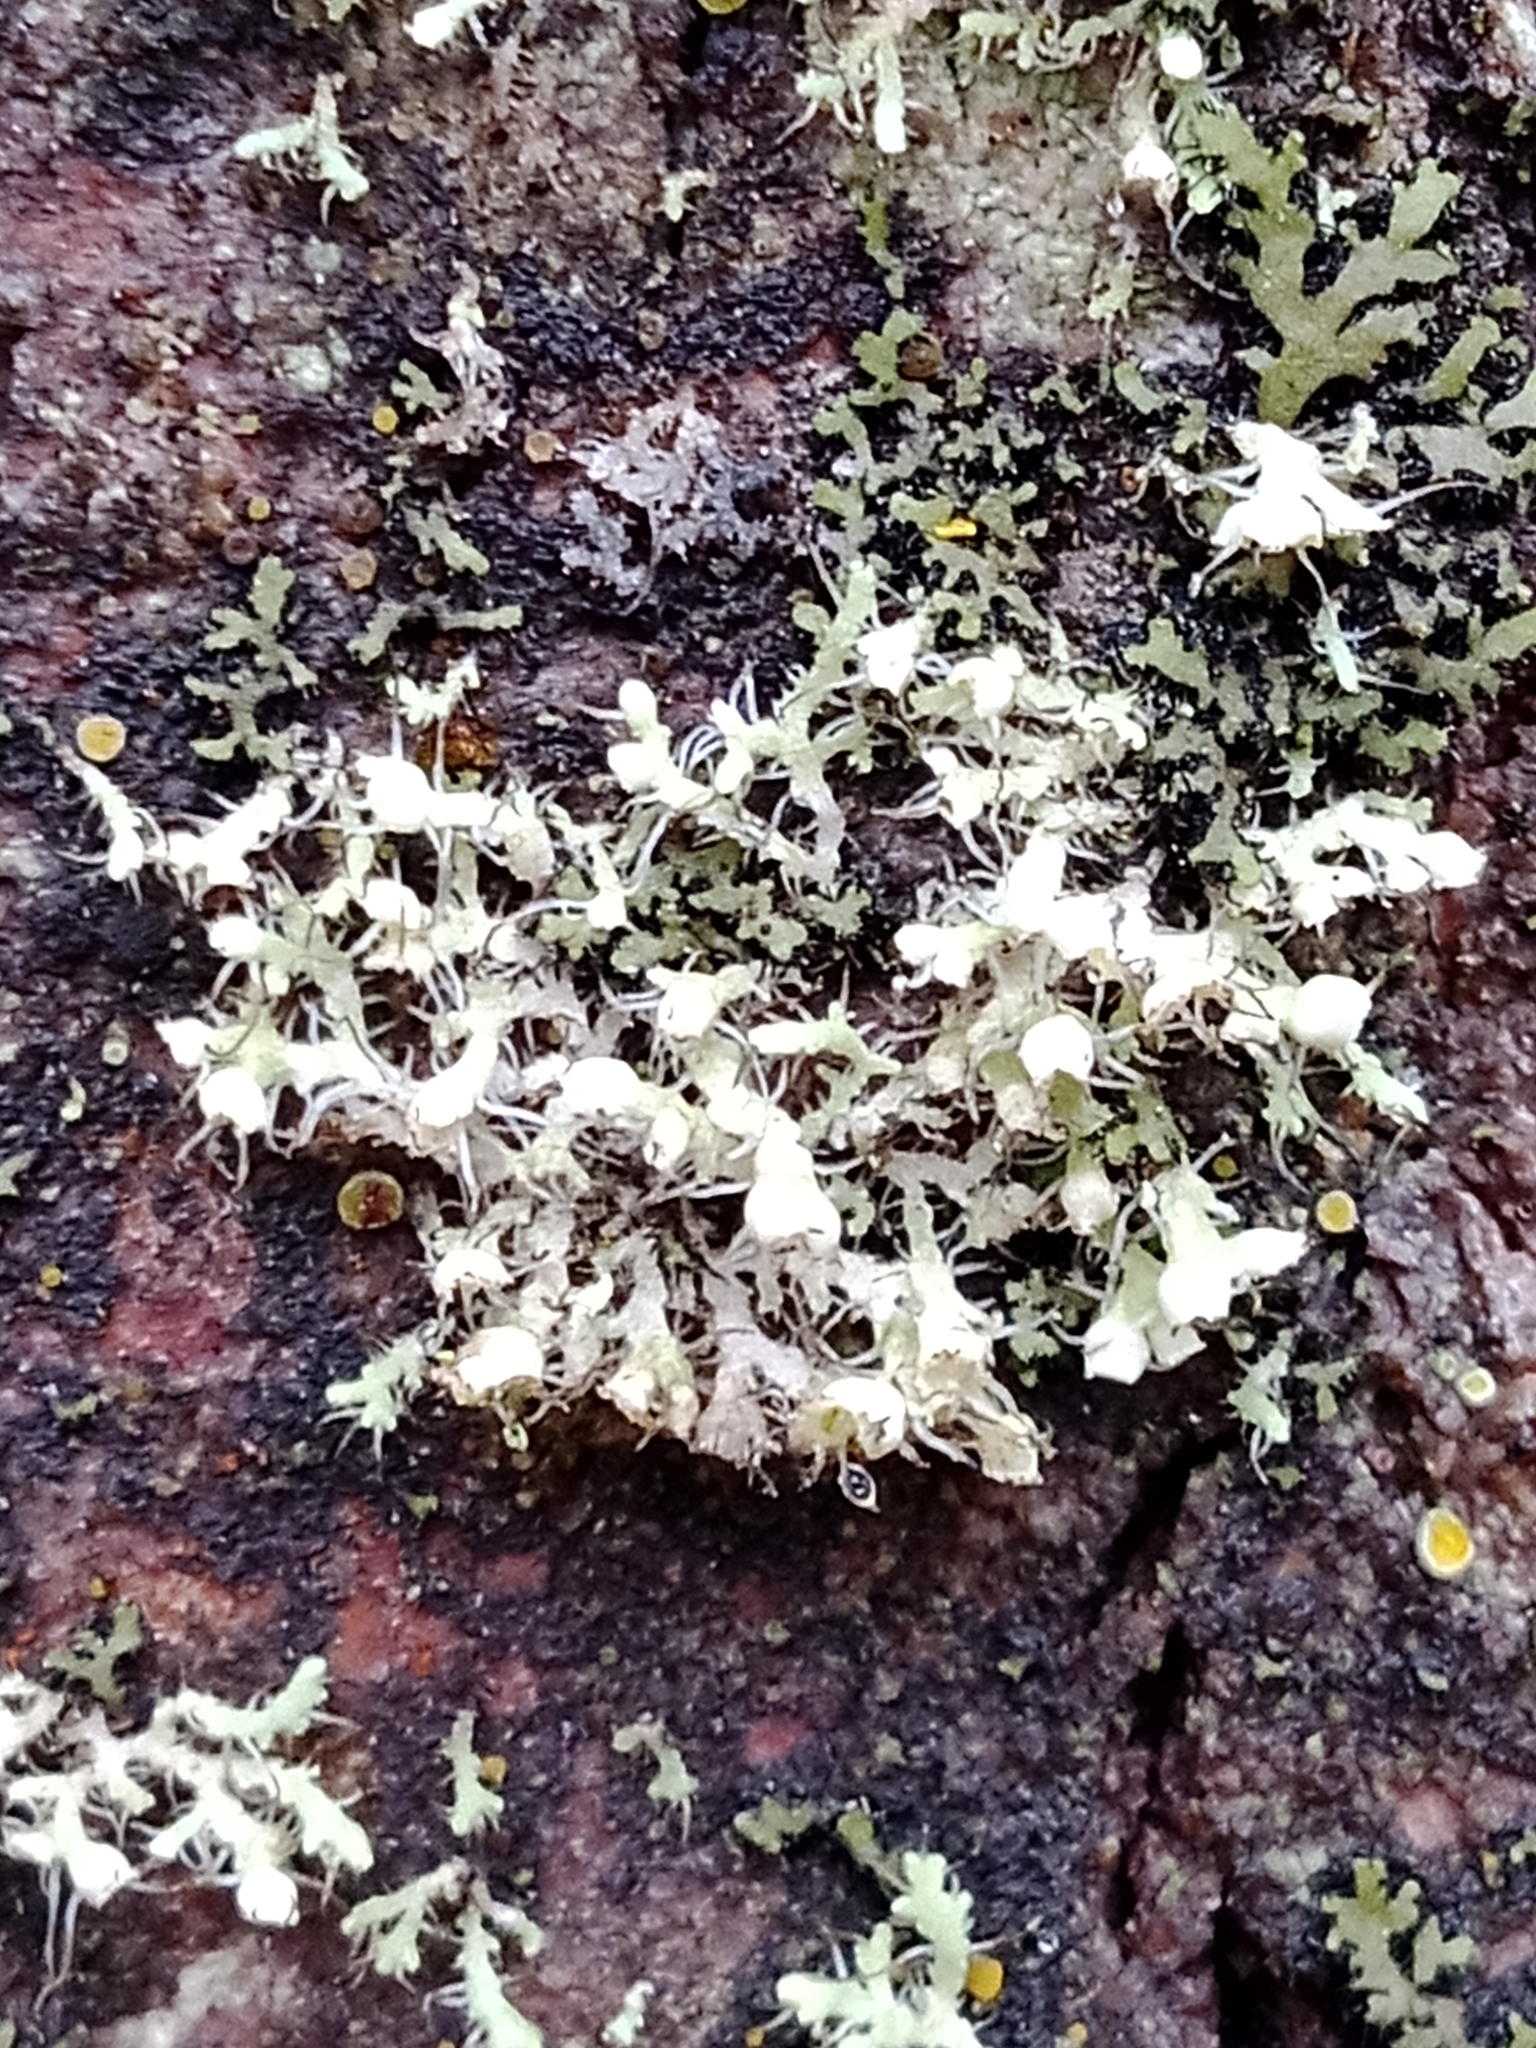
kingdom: Fungi
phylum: Ascomycota
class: Lecanoromycetes
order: Caliciales
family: Physciaceae
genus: Physcia
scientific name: Physcia adscendens
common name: Hooded rosette lichen
